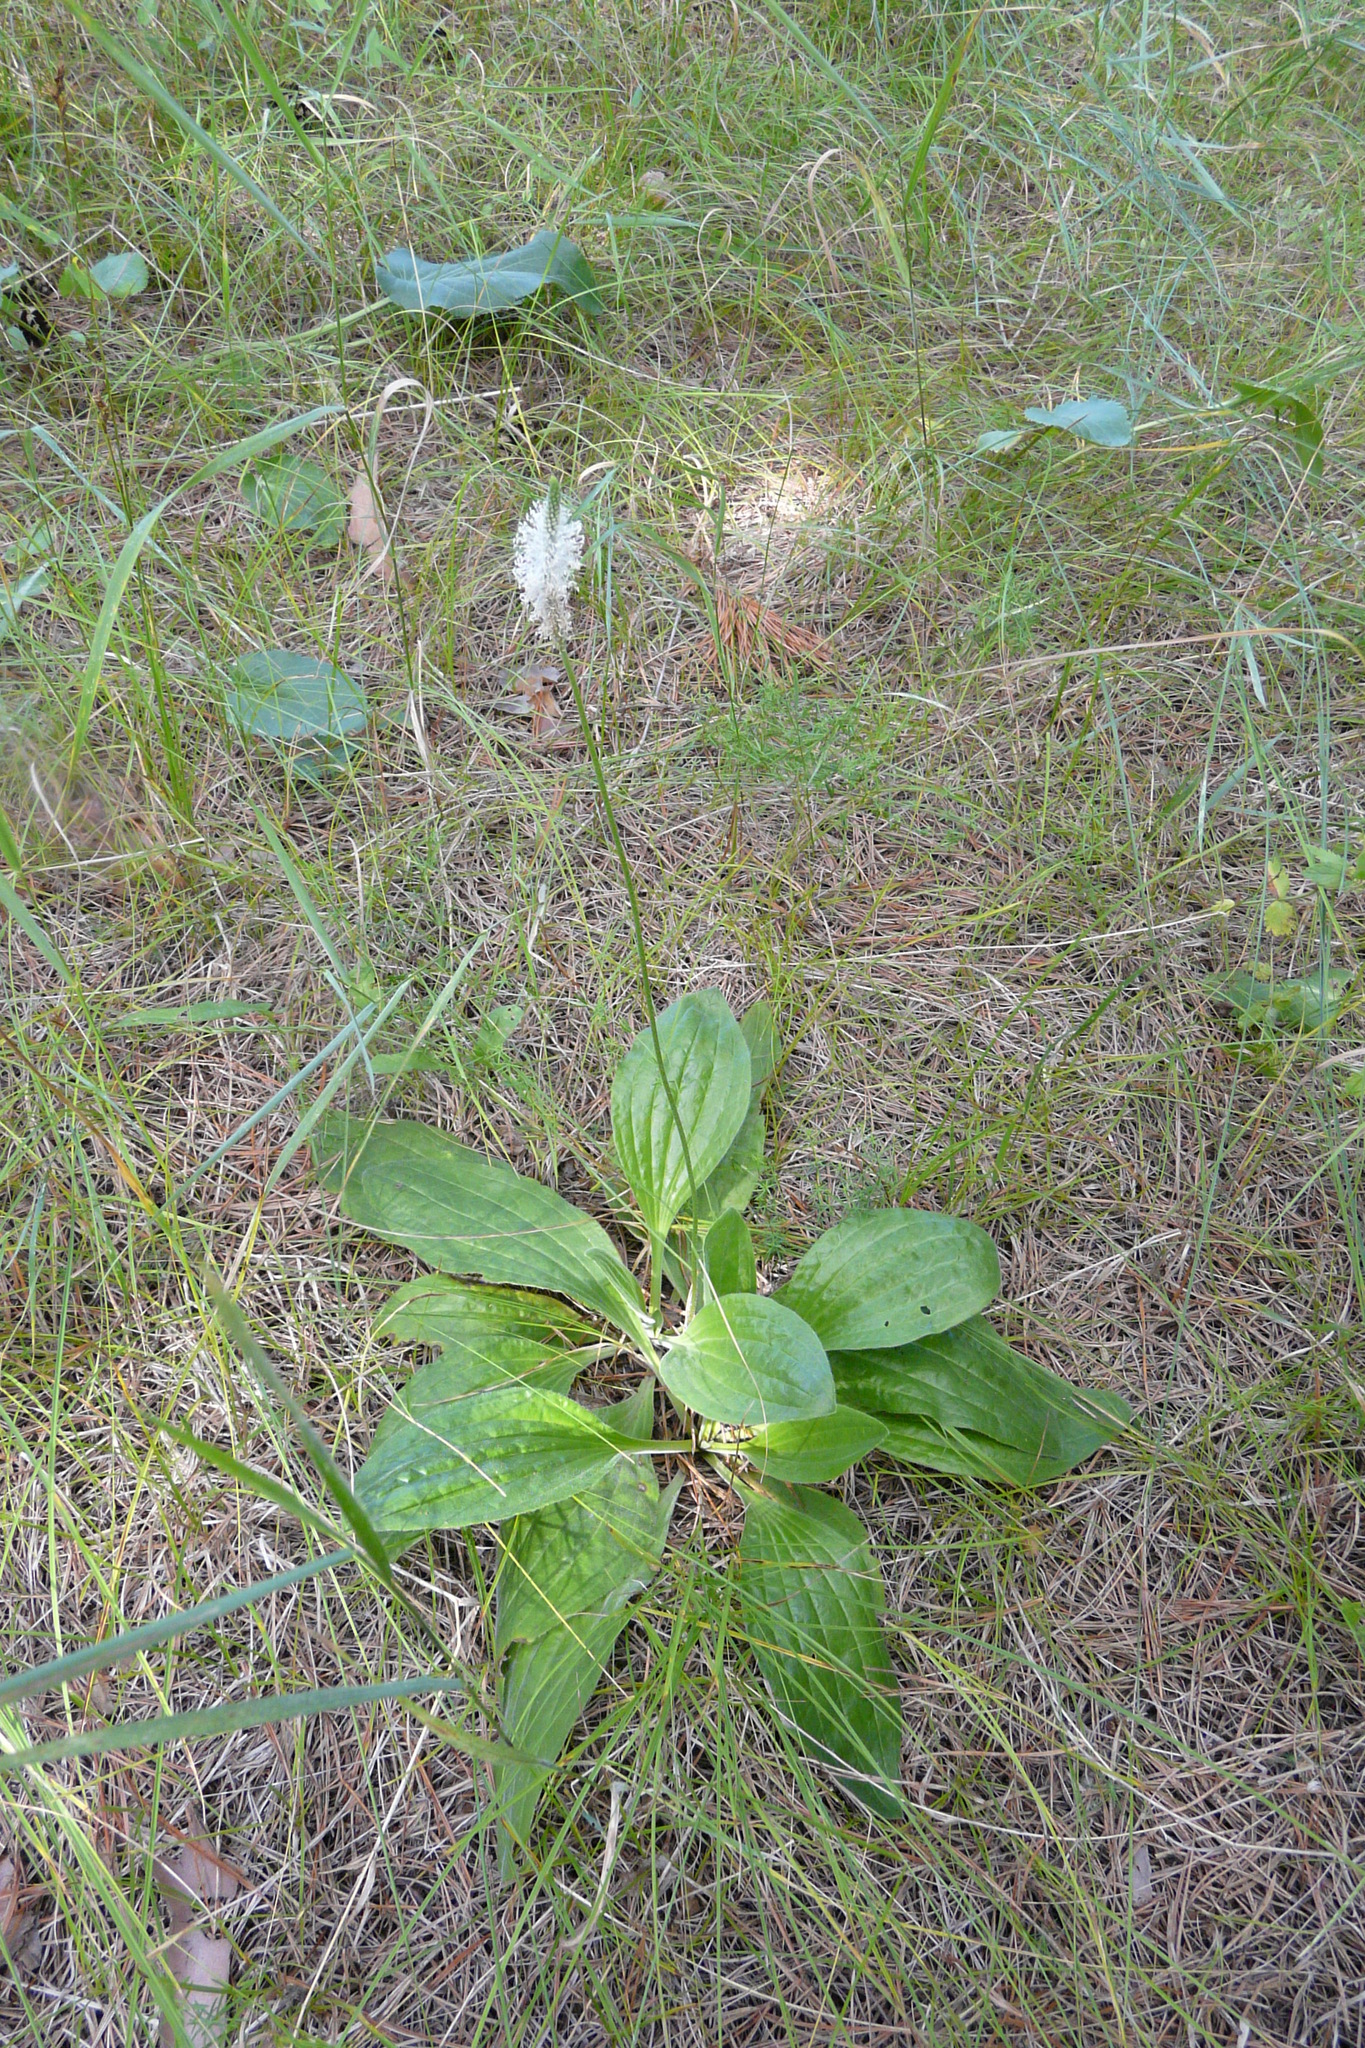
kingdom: Plantae
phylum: Tracheophyta
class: Magnoliopsida
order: Lamiales
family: Plantaginaceae
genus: Plantago
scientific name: Plantago media
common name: Hoary plantain
